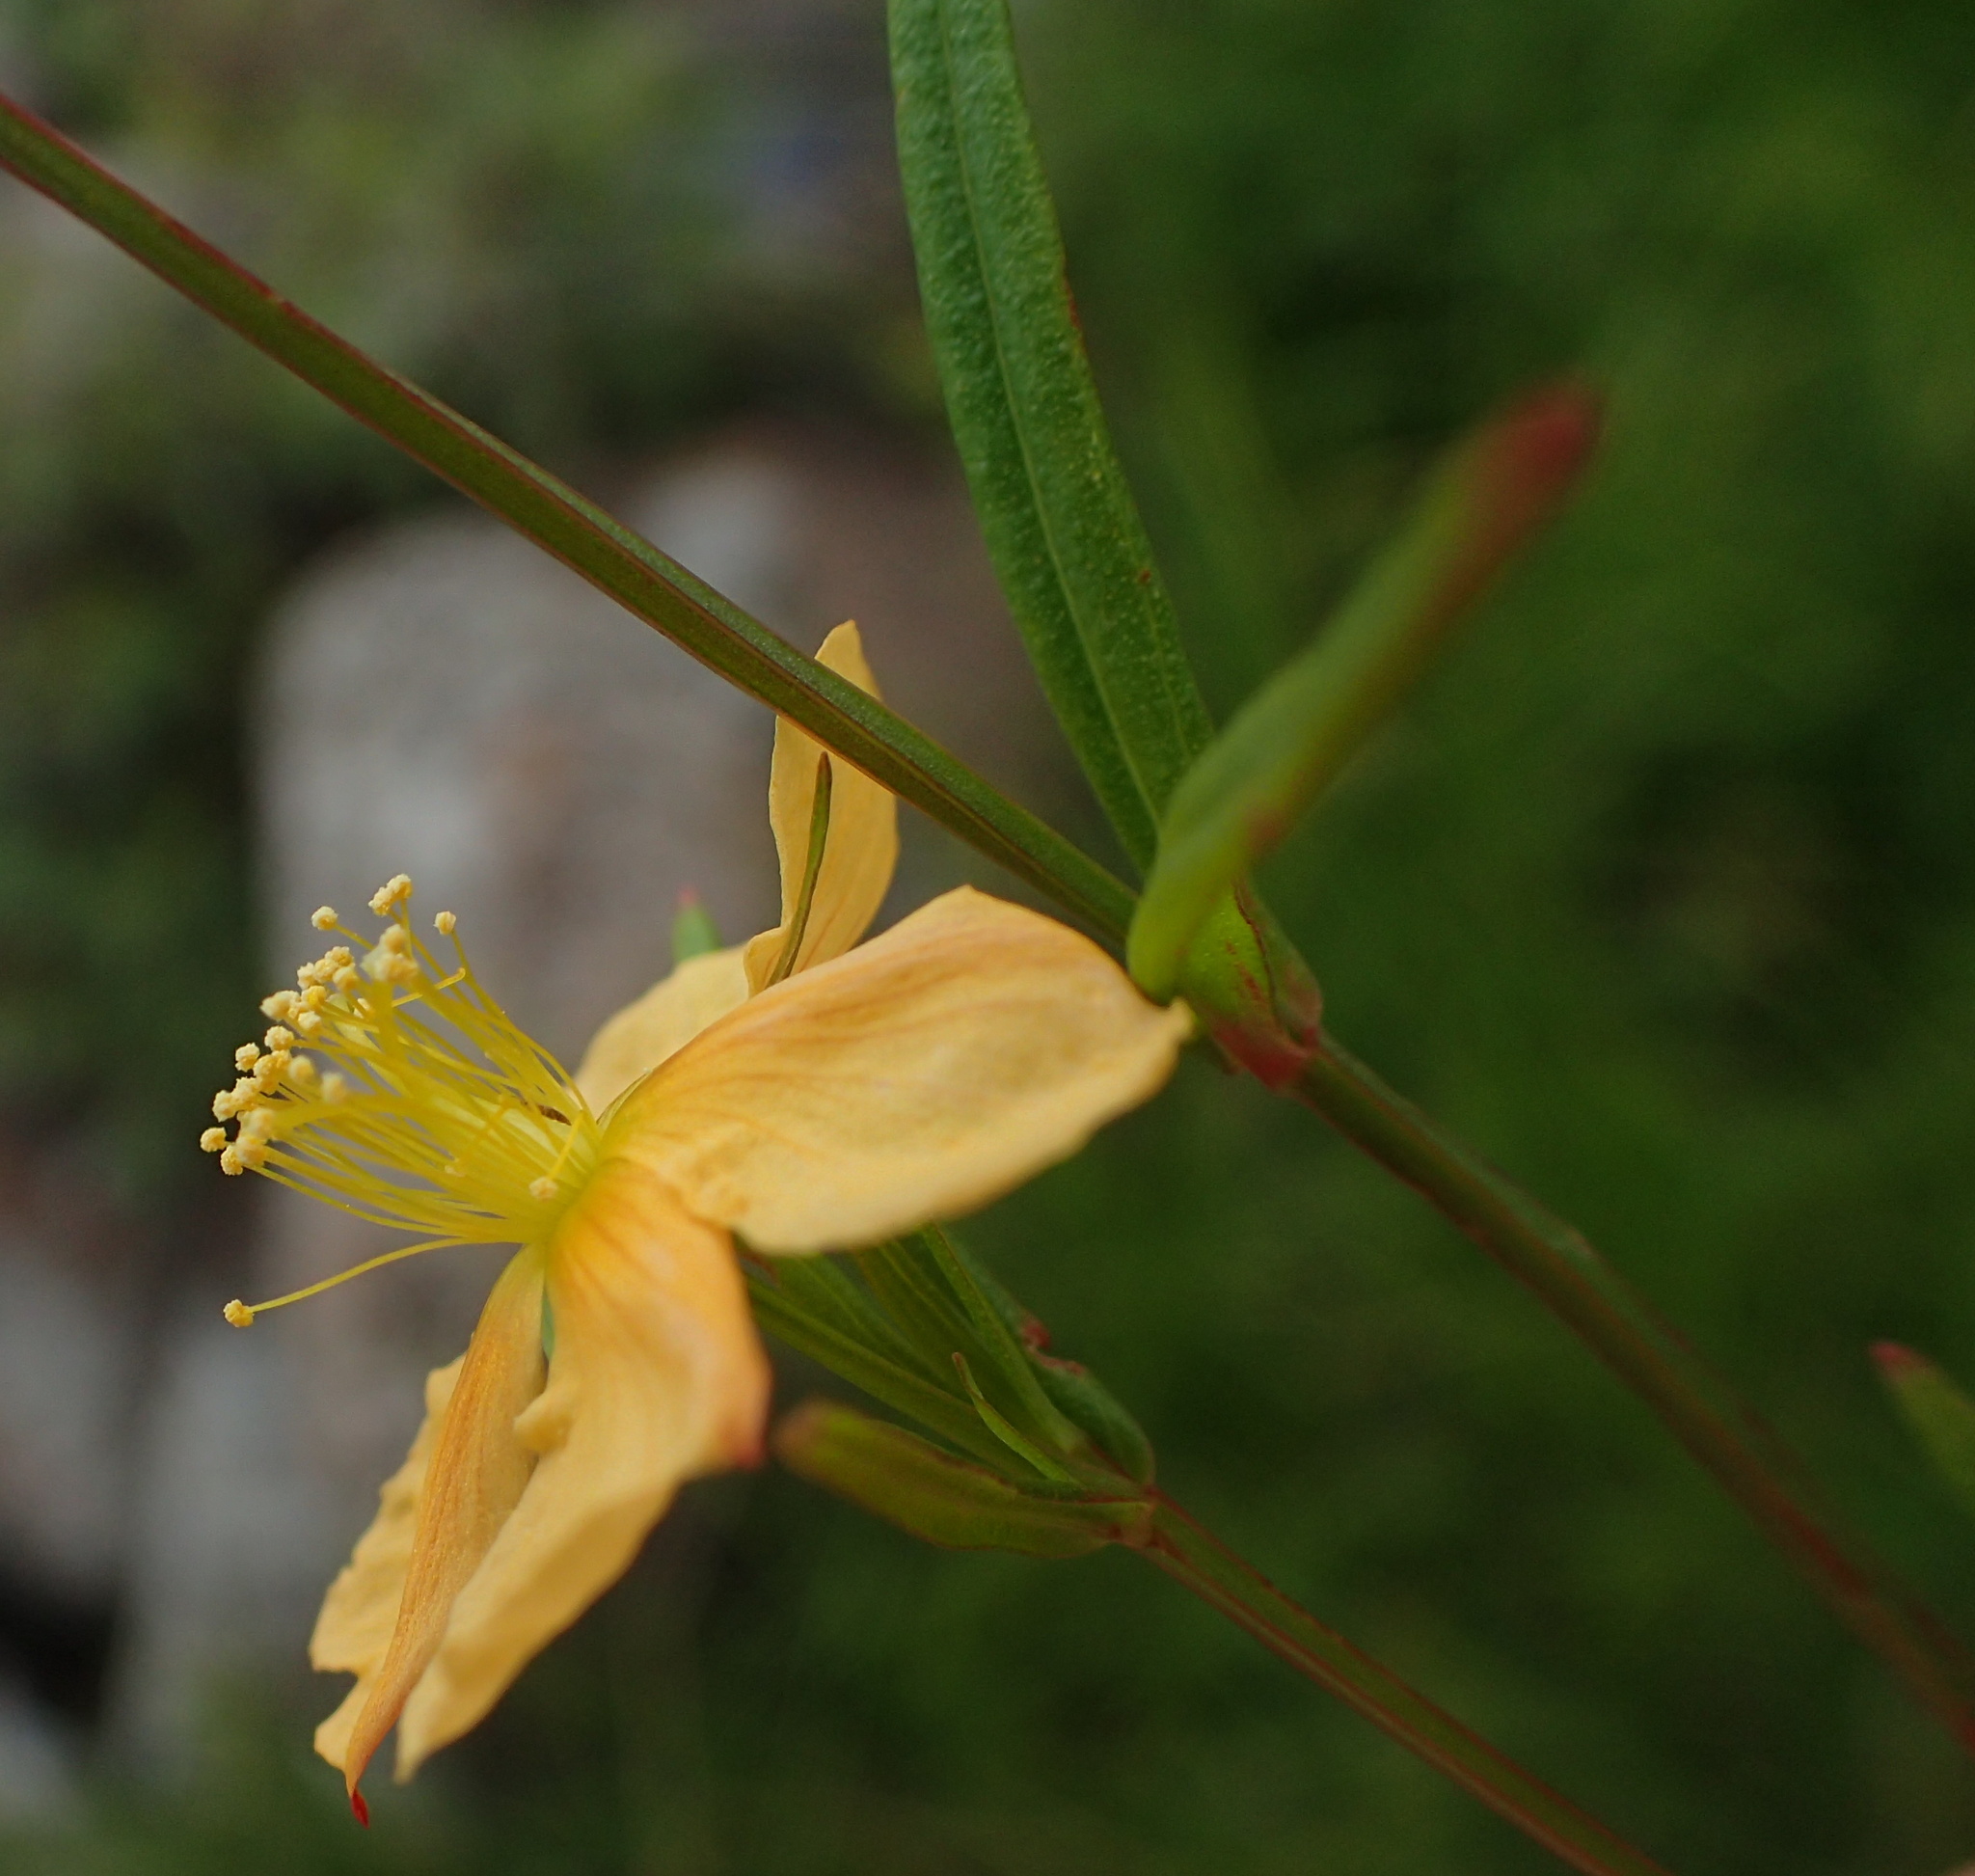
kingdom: Plantae
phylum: Tracheophyta
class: Magnoliopsida
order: Malpighiales
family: Hypericaceae
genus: Hypericum
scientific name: Hypericum lalandii
